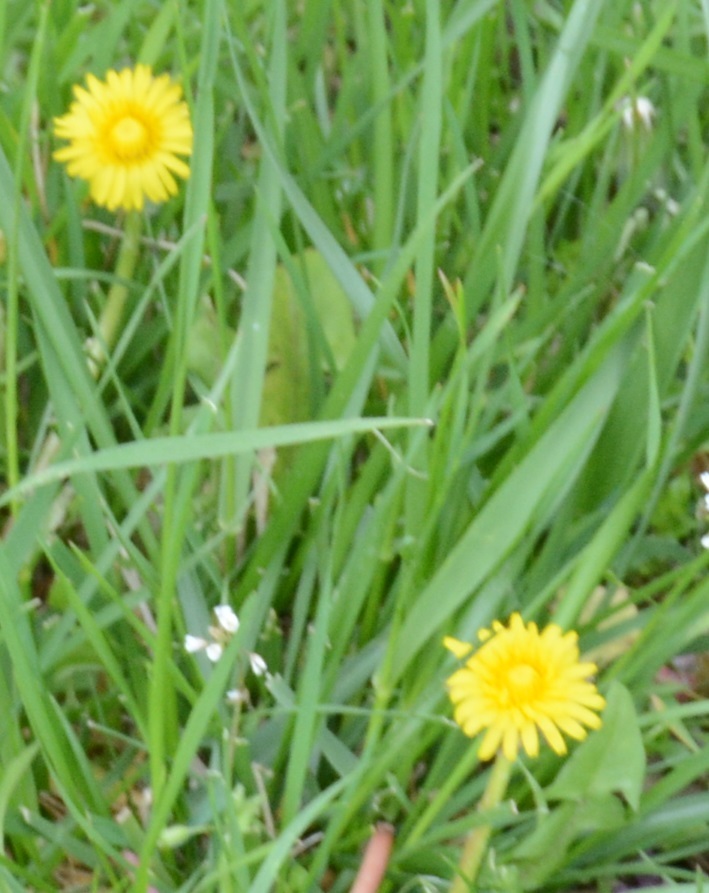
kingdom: Plantae
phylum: Tracheophyta
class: Magnoliopsida
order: Asterales
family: Asteraceae
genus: Taraxacum
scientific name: Taraxacum officinale
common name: Common dandelion
